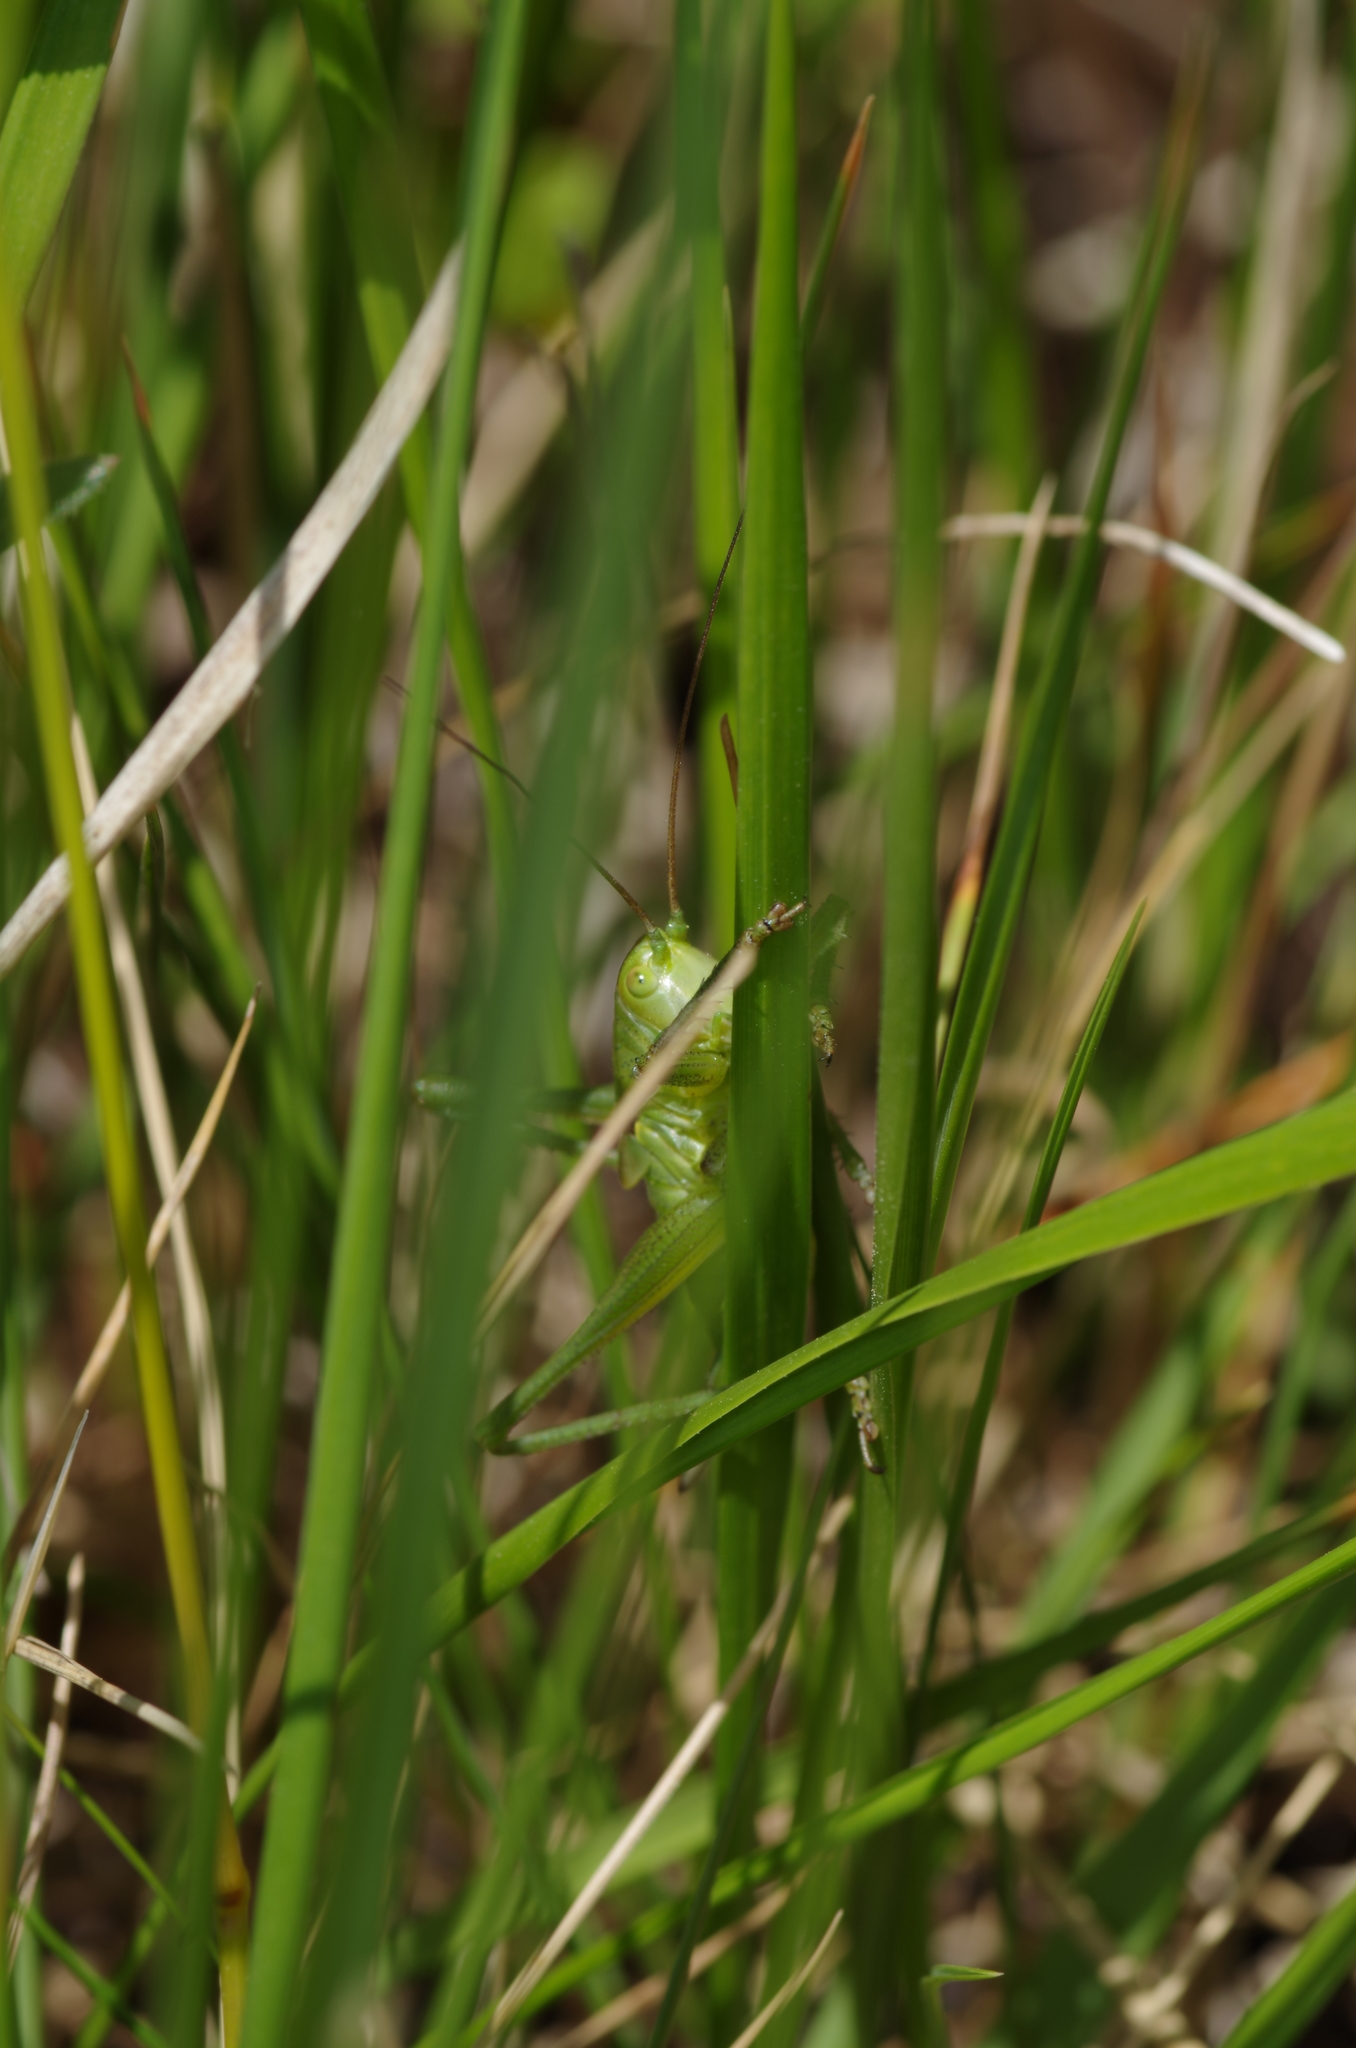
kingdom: Animalia
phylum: Arthropoda
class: Insecta
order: Orthoptera
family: Tettigoniidae
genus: Tettigonia
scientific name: Tettigonia viridissima
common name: Great green bush-cricket
